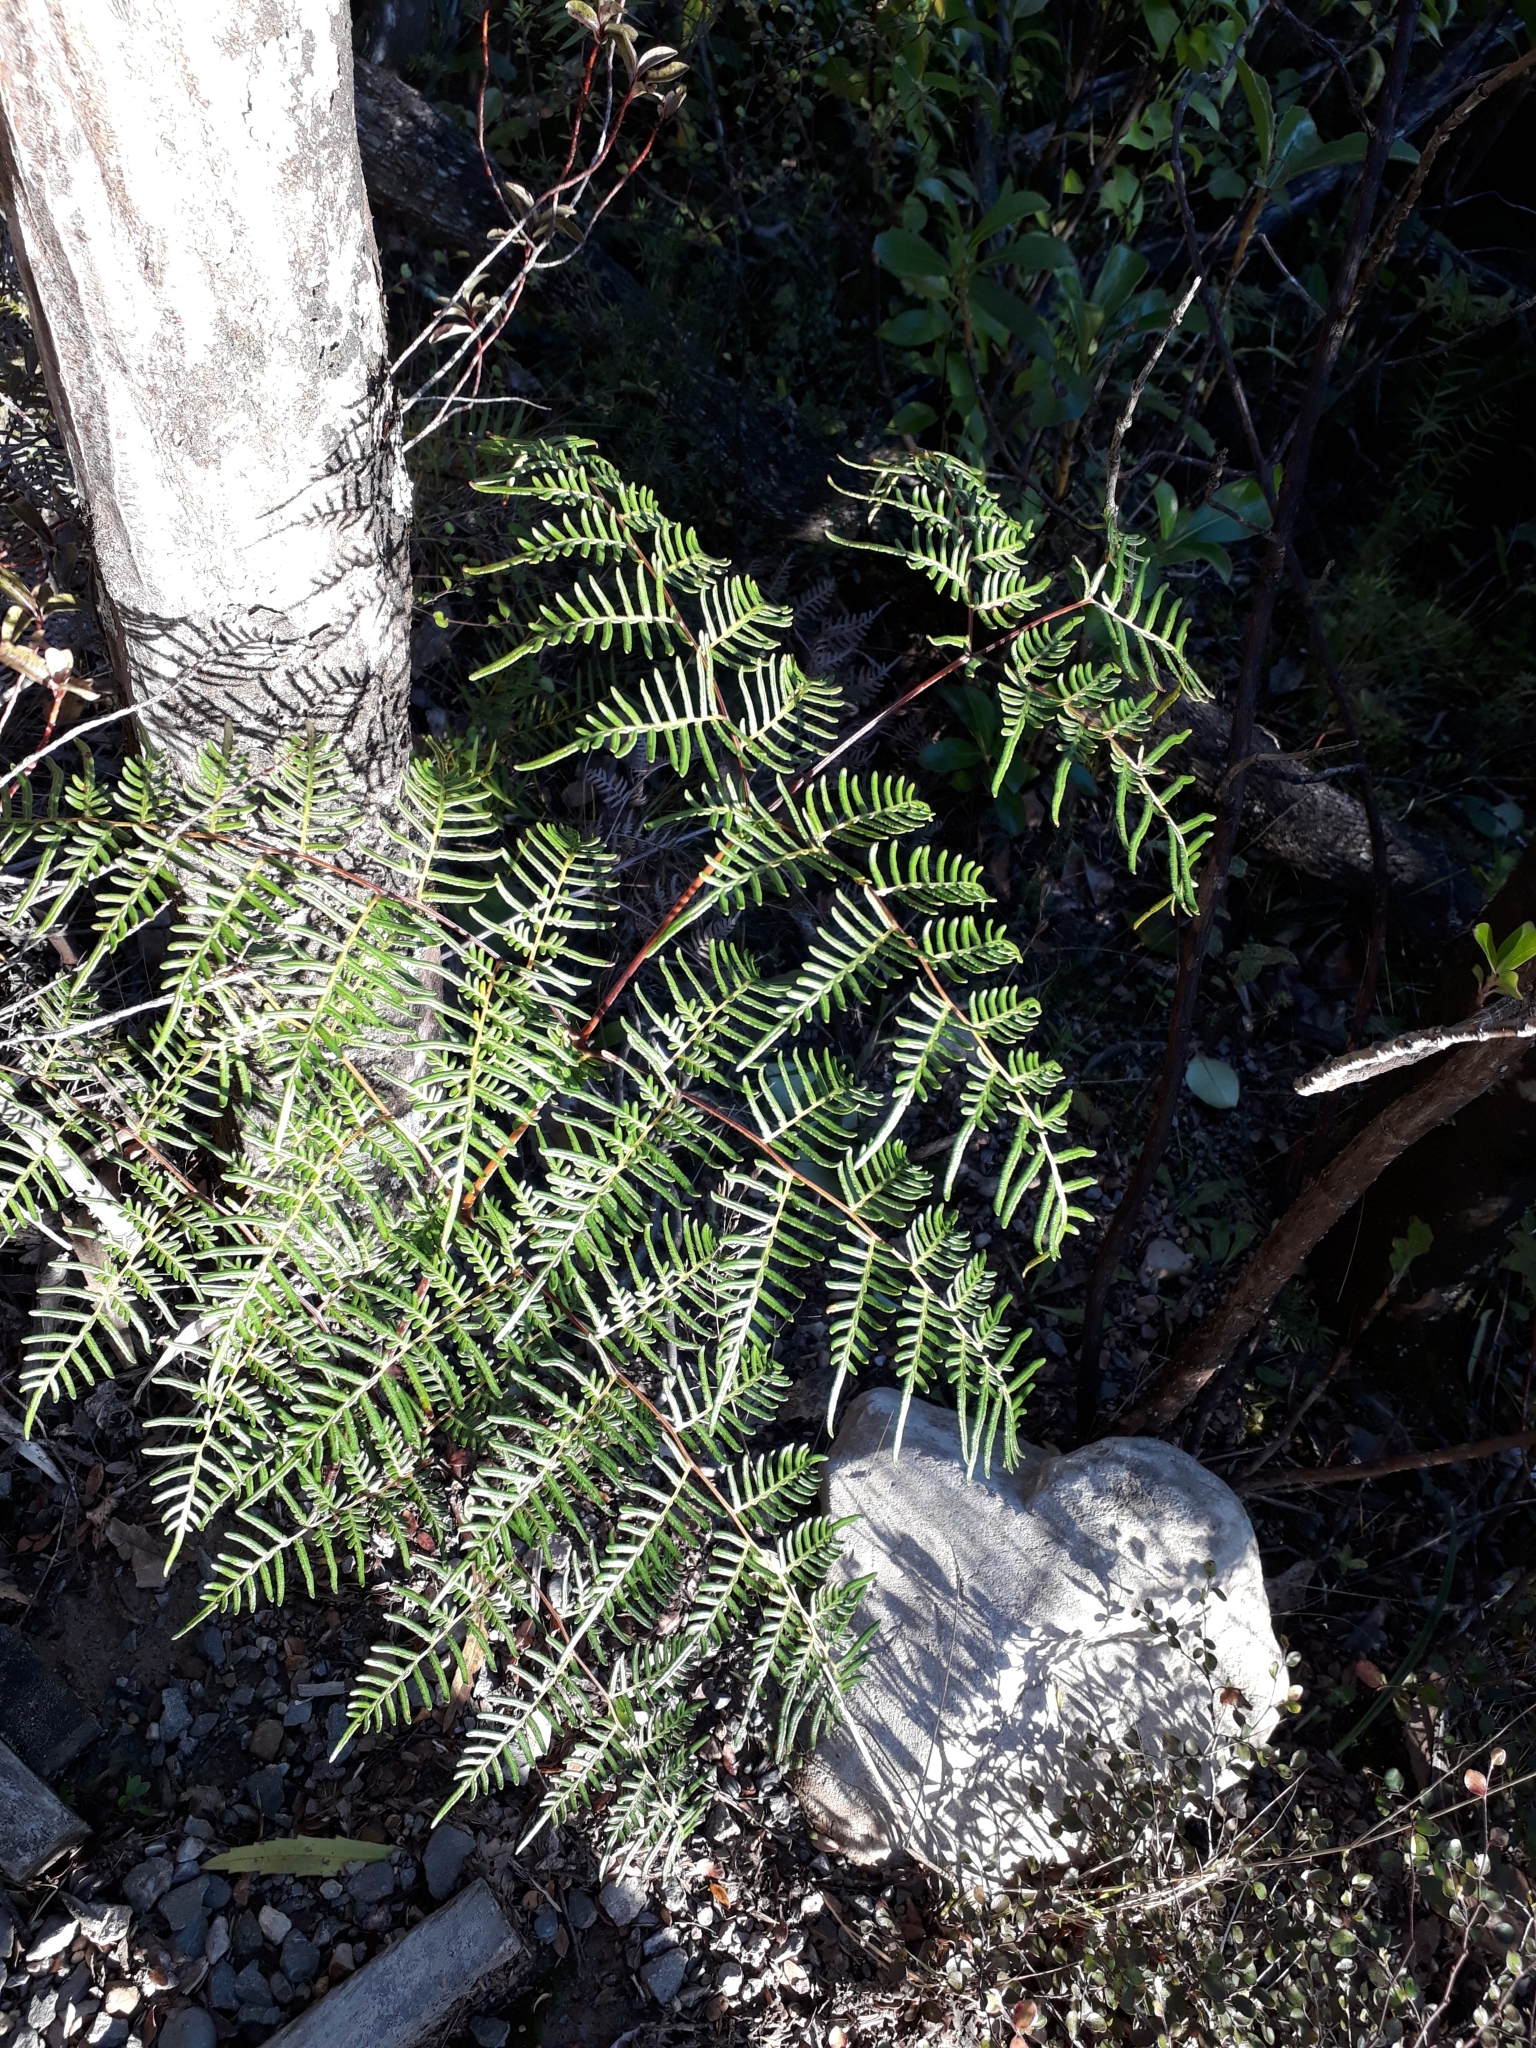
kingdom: Plantae
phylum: Tracheophyta
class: Polypodiopsida
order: Polypodiales
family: Dennstaedtiaceae
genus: Pteridium
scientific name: Pteridium esculentum
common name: Bracken fern
